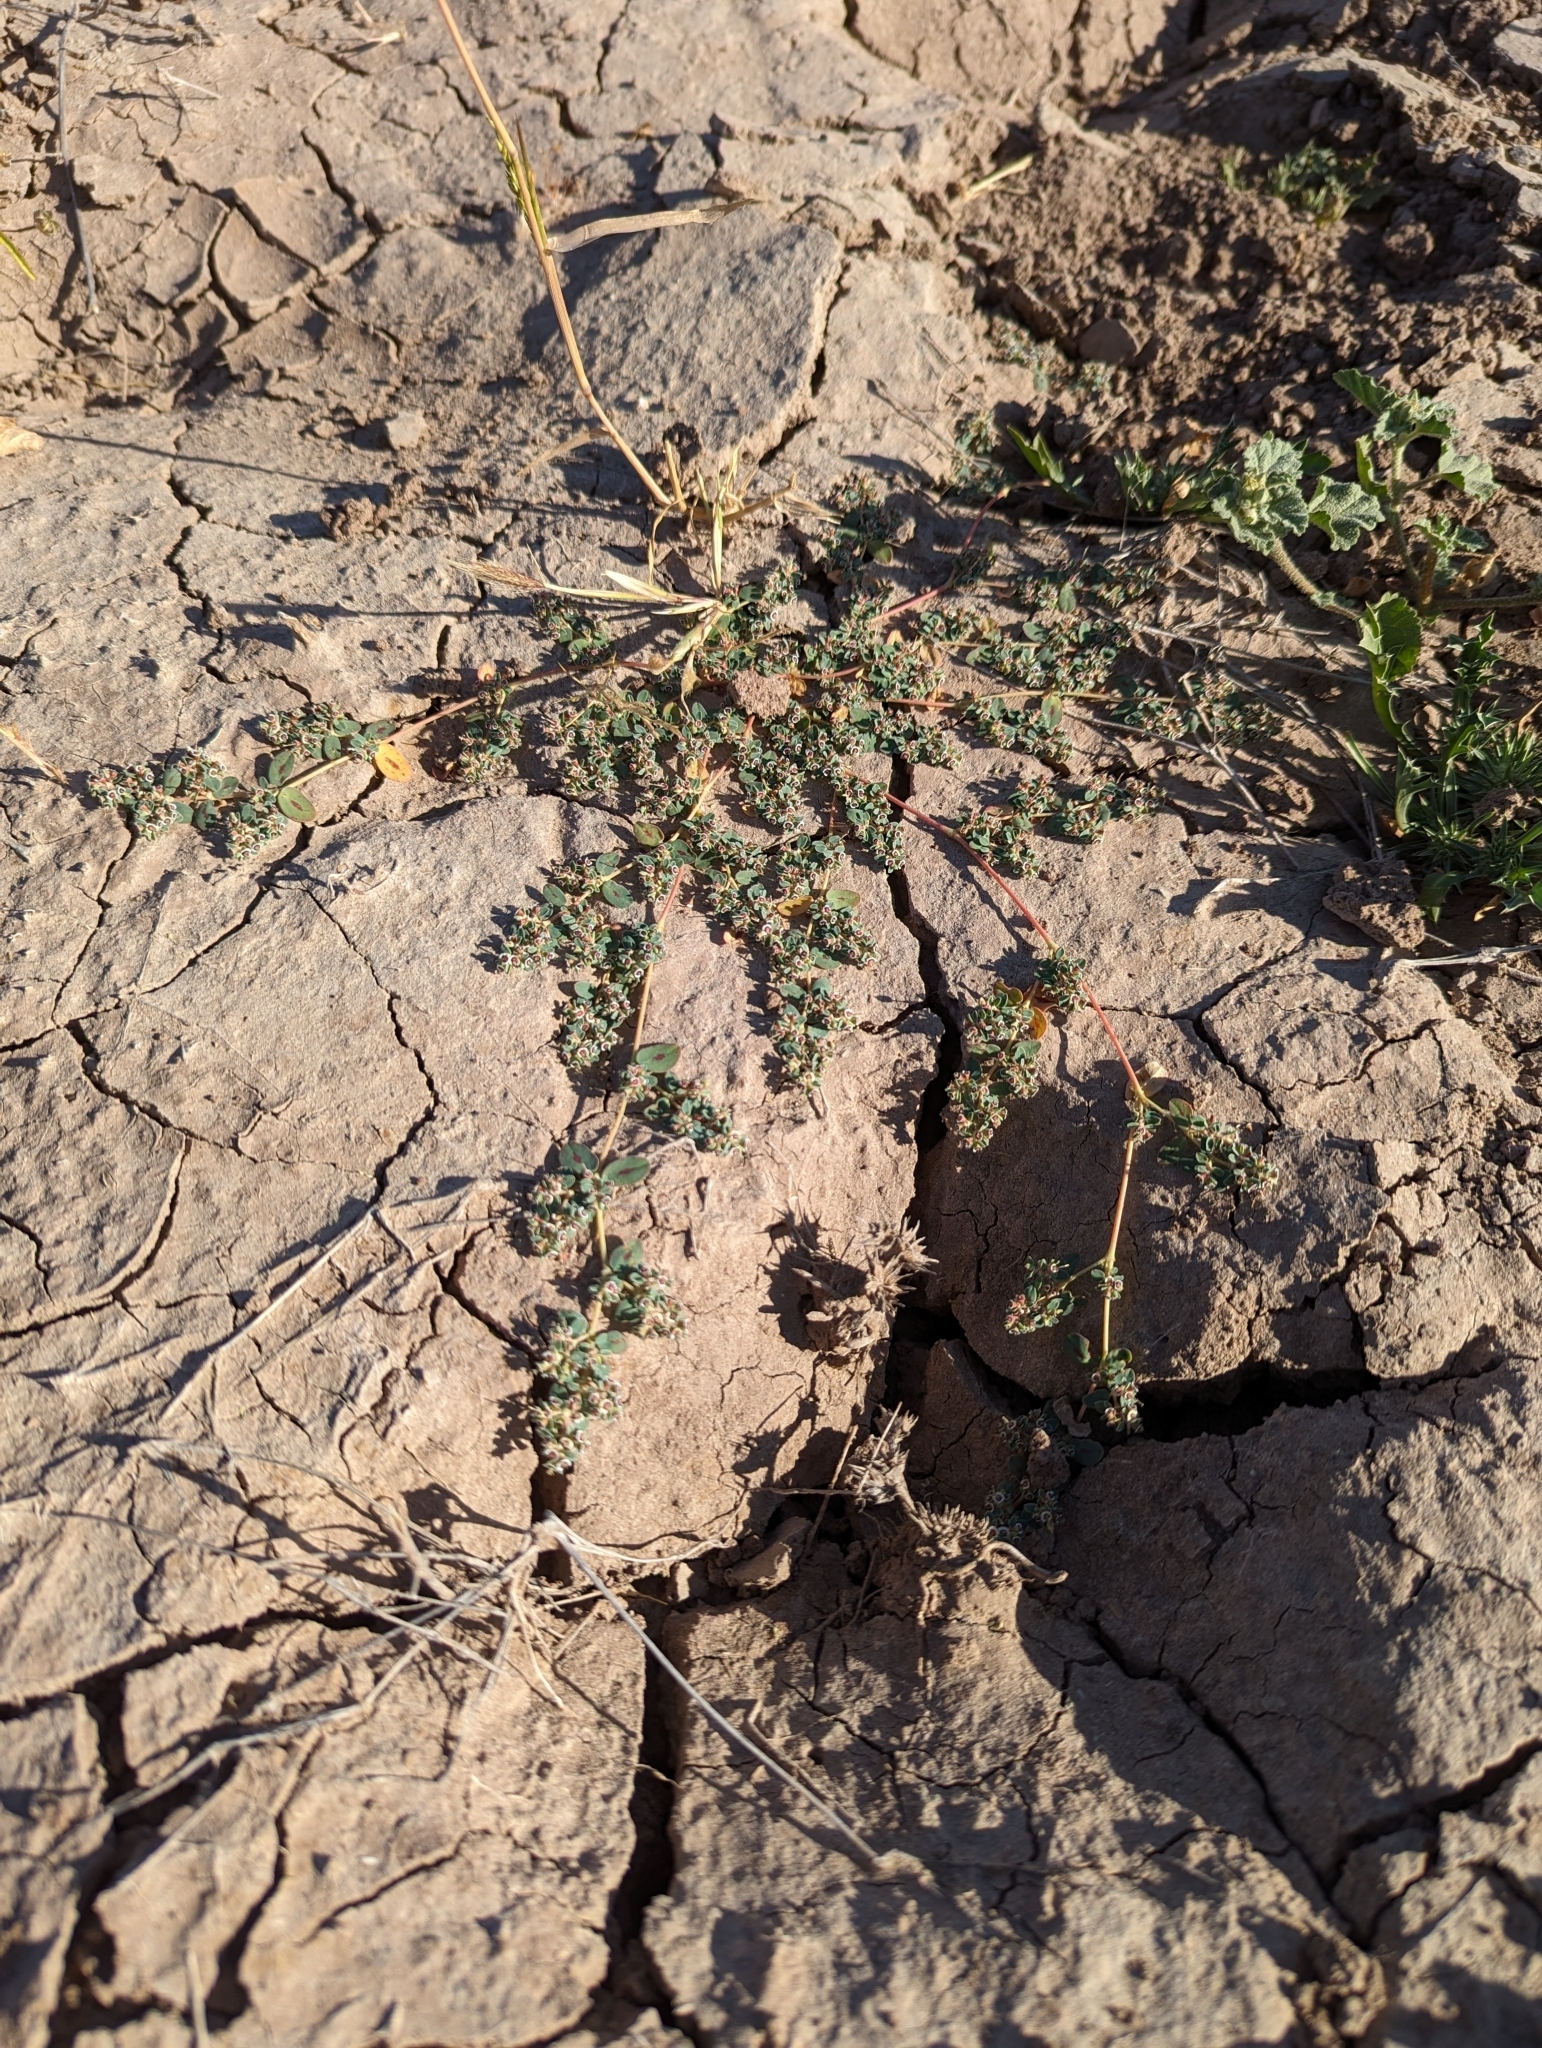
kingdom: Plantae
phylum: Tracheophyta
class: Magnoliopsida
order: Malpighiales
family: Euphorbiaceae
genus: Euphorbia
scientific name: Euphorbia albomarginata
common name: Whitemargin sandmat
